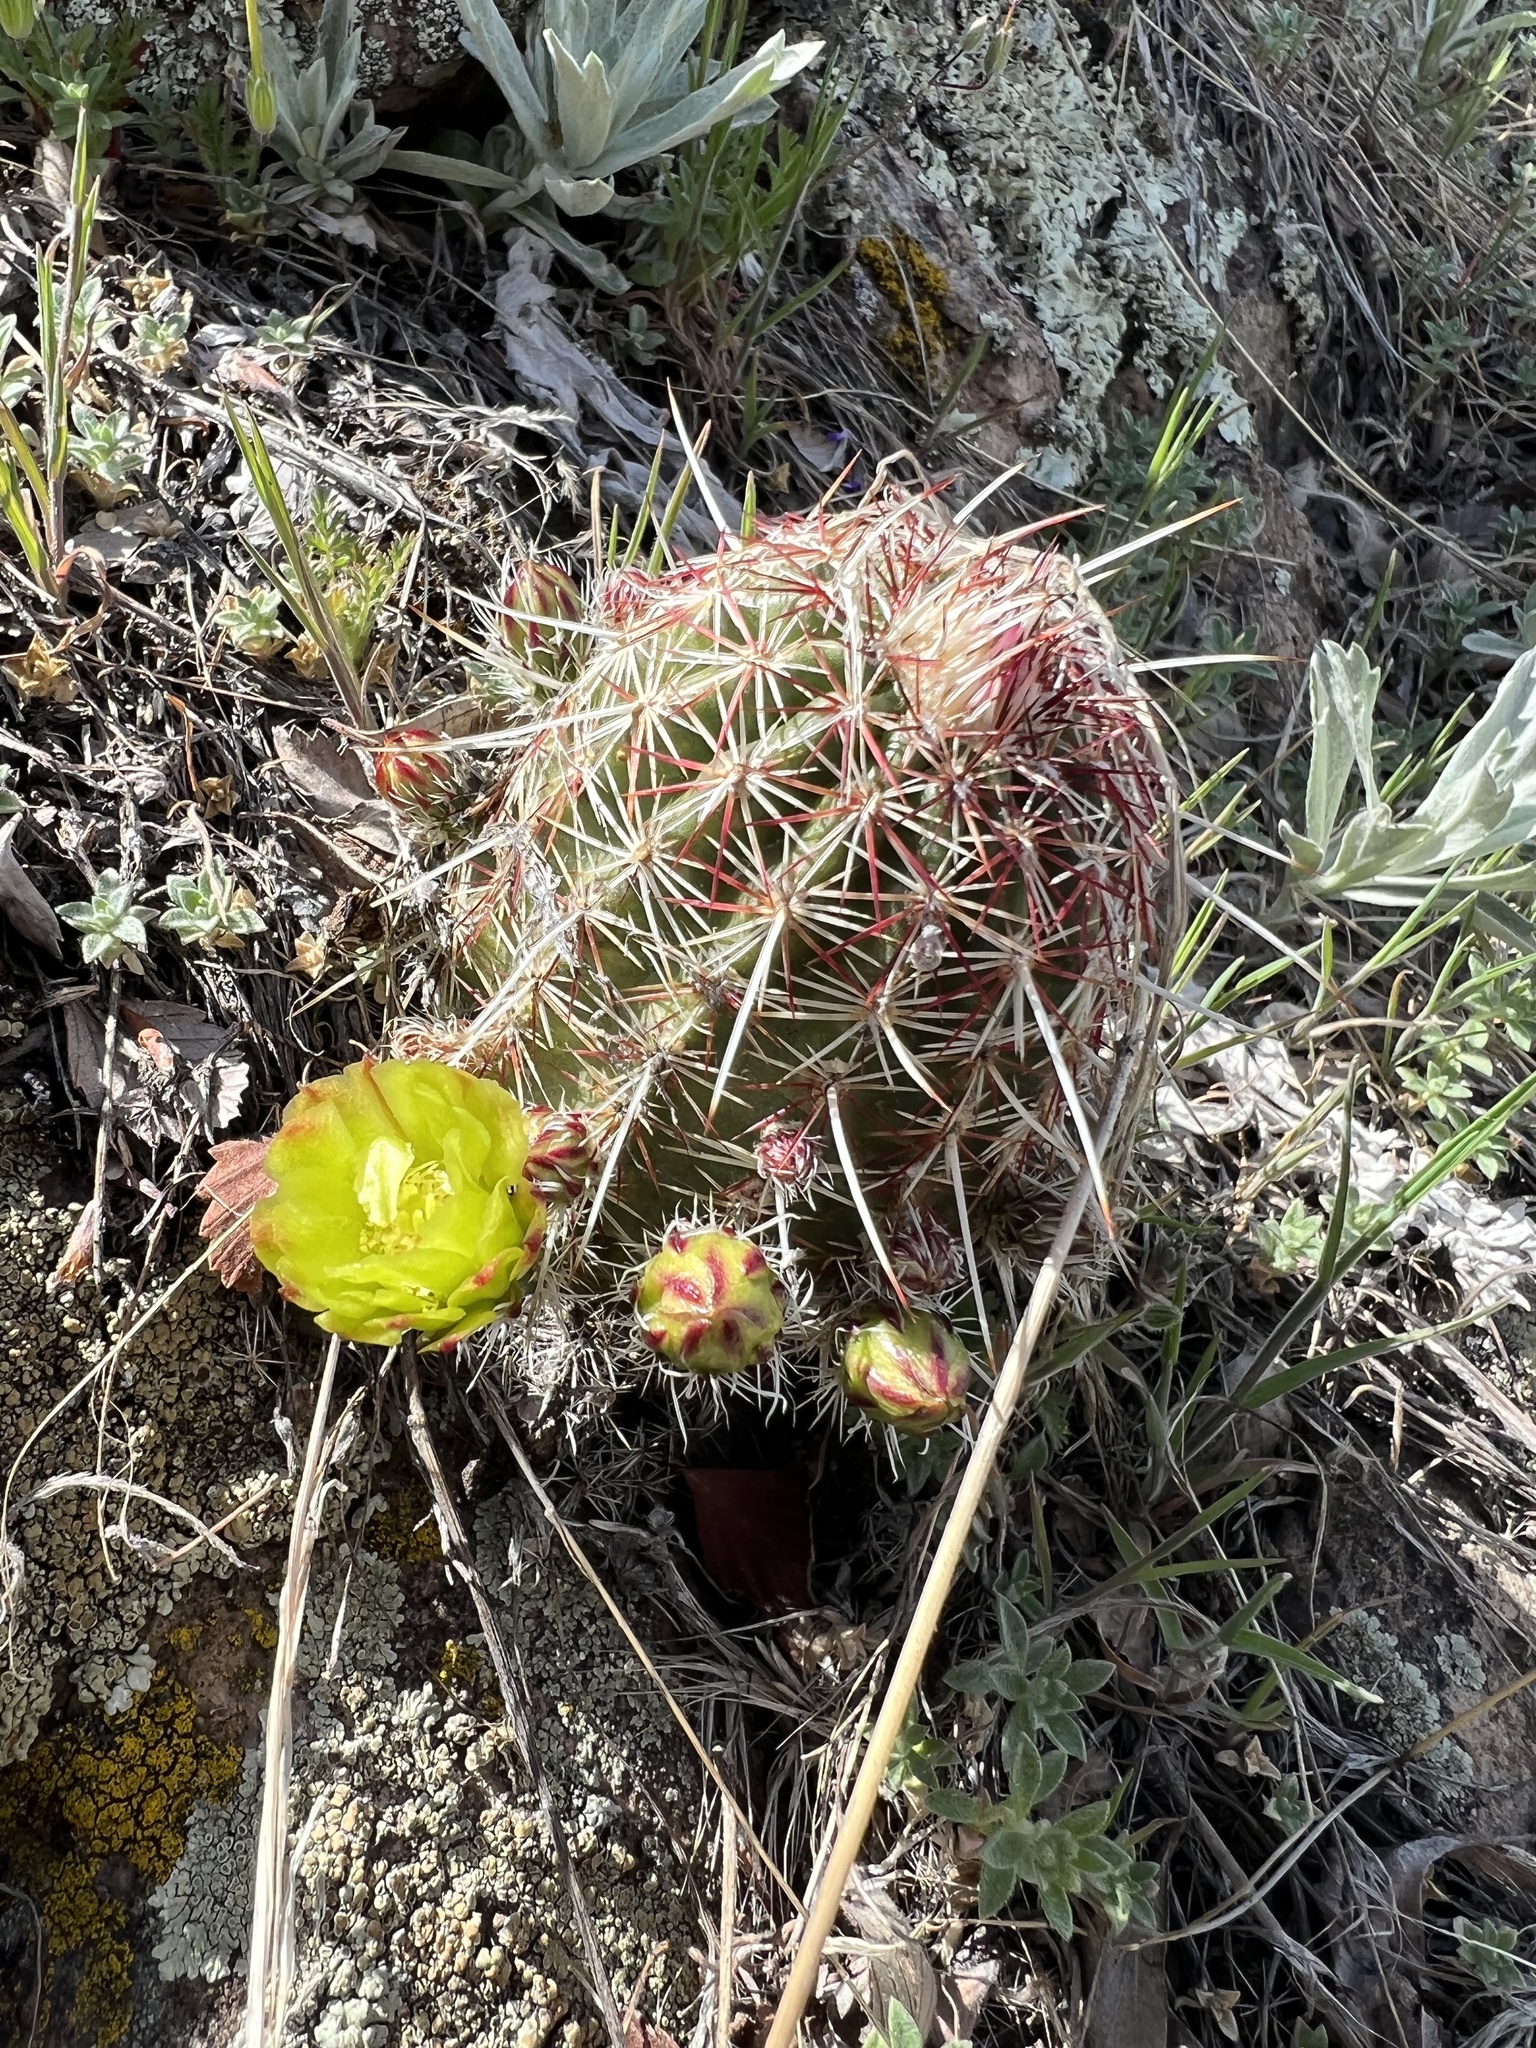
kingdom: Plantae
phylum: Tracheophyta
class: Magnoliopsida
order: Caryophyllales
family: Cactaceae
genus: Echinocereus
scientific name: Echinocereus viridiflorus
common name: Nylon hedgehog cactus
